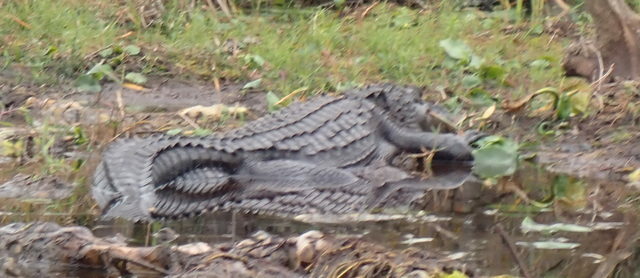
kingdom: Animalia
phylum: Chordata
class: Crocodylia
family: Alligatoridae
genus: Alligator
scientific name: Alligator mississippiensis
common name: American alligator
